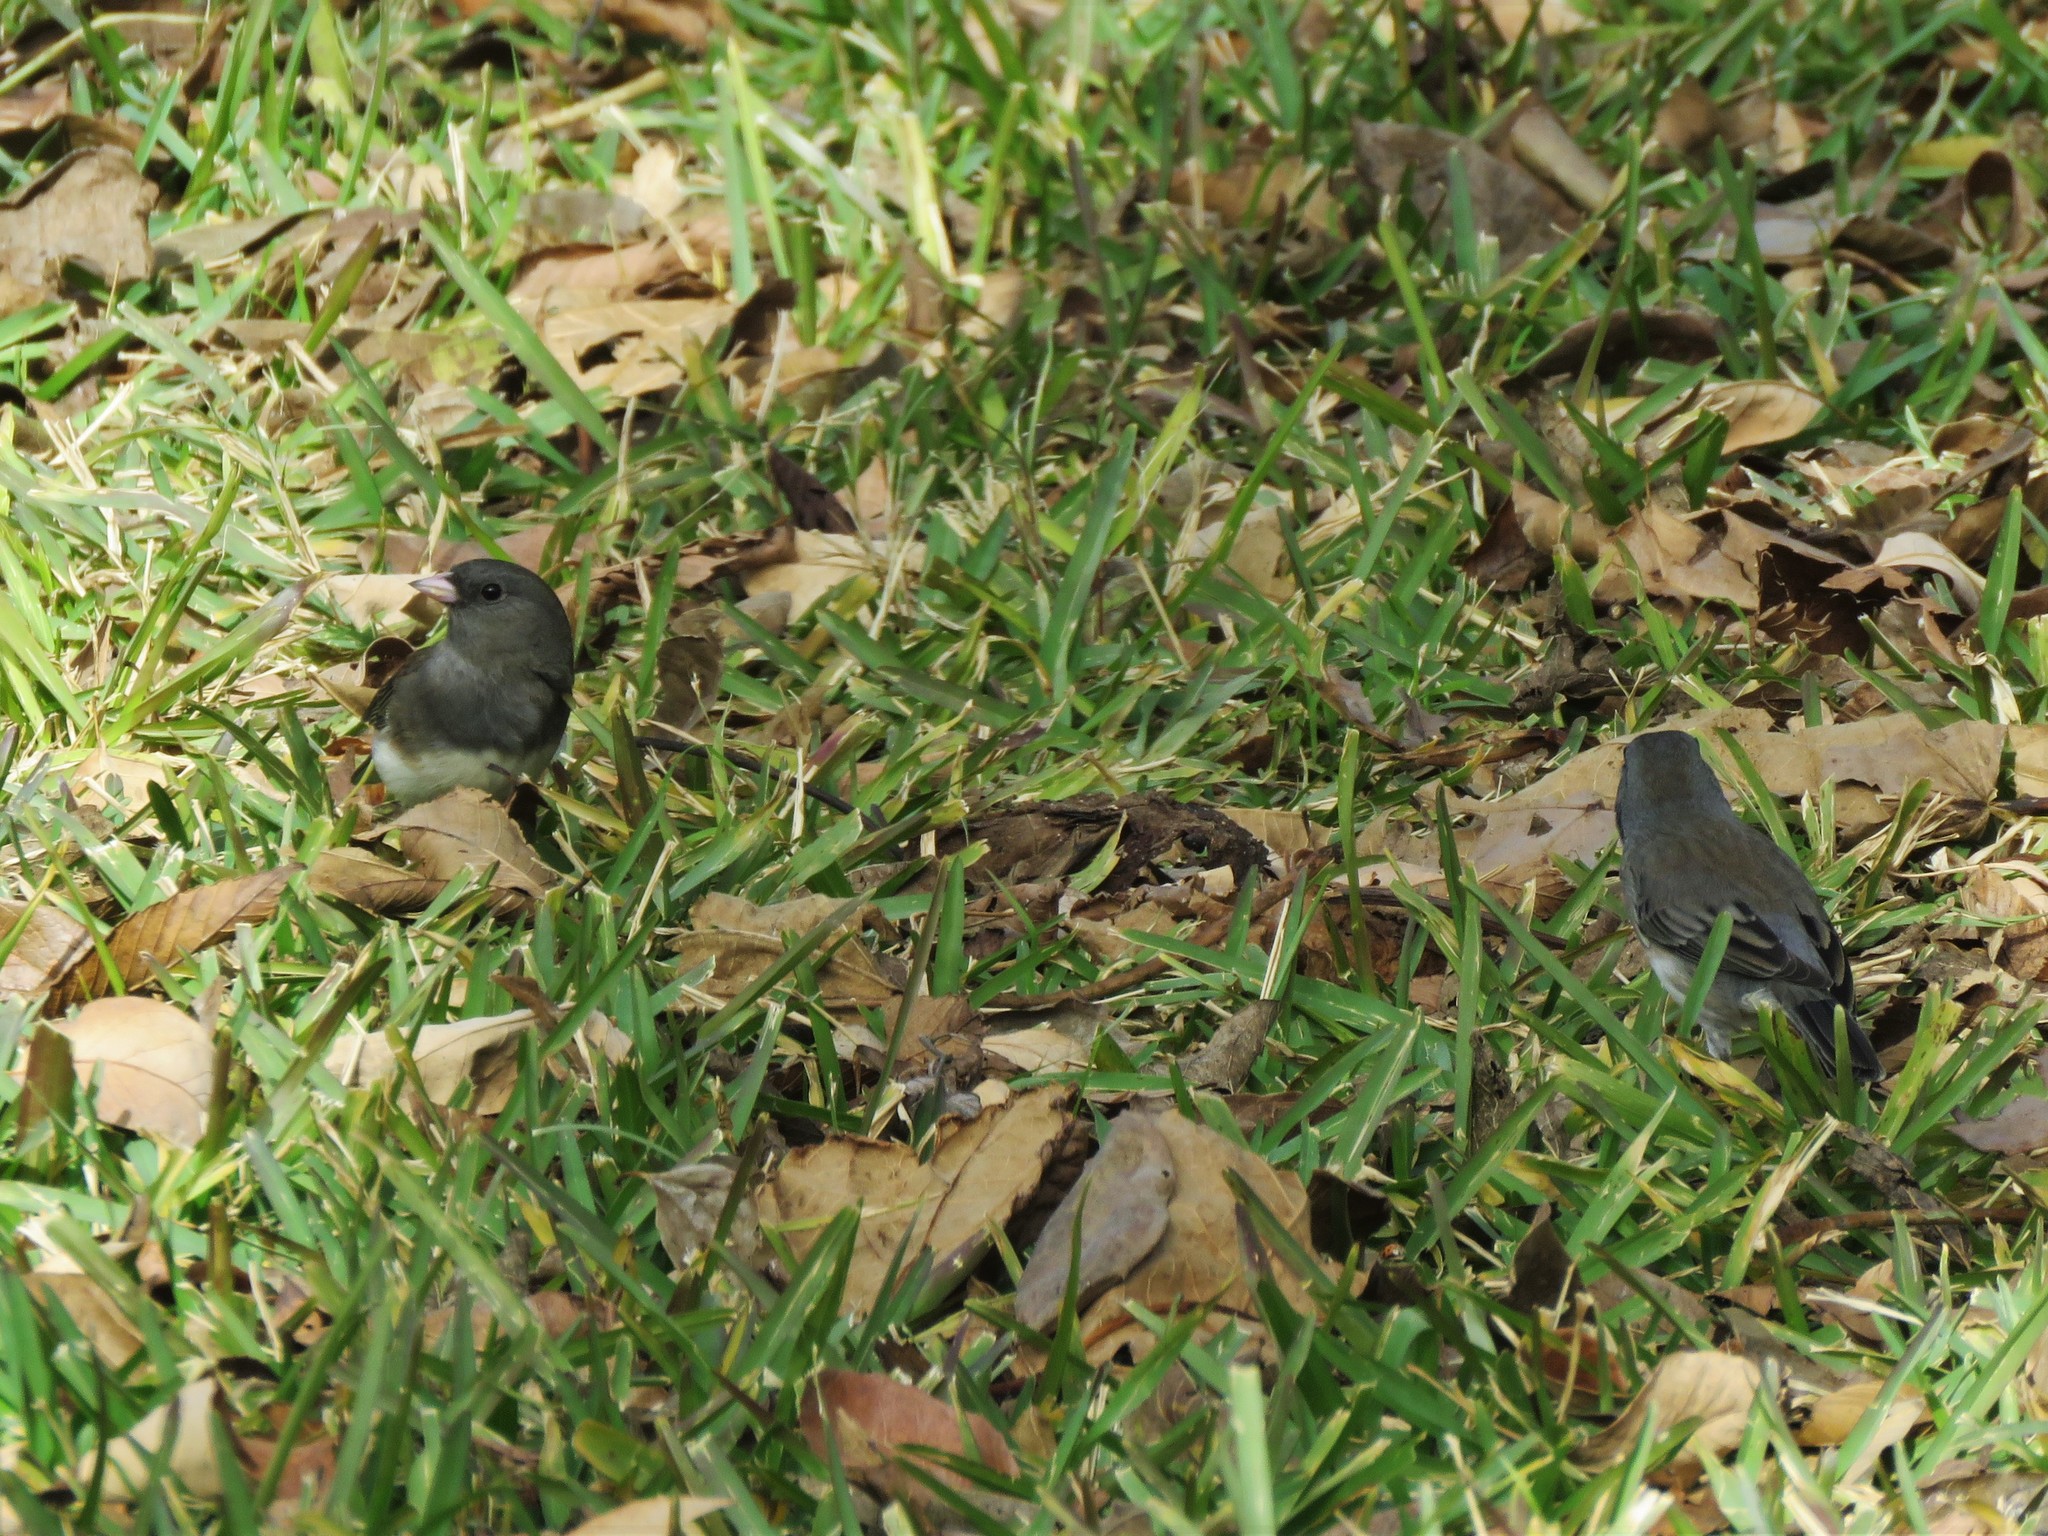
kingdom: Animalia
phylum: Chordata
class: Aves
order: Passeriformes
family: Passerellidae
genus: Junco
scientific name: Junco hyemalis
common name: Dark-eyed junco
